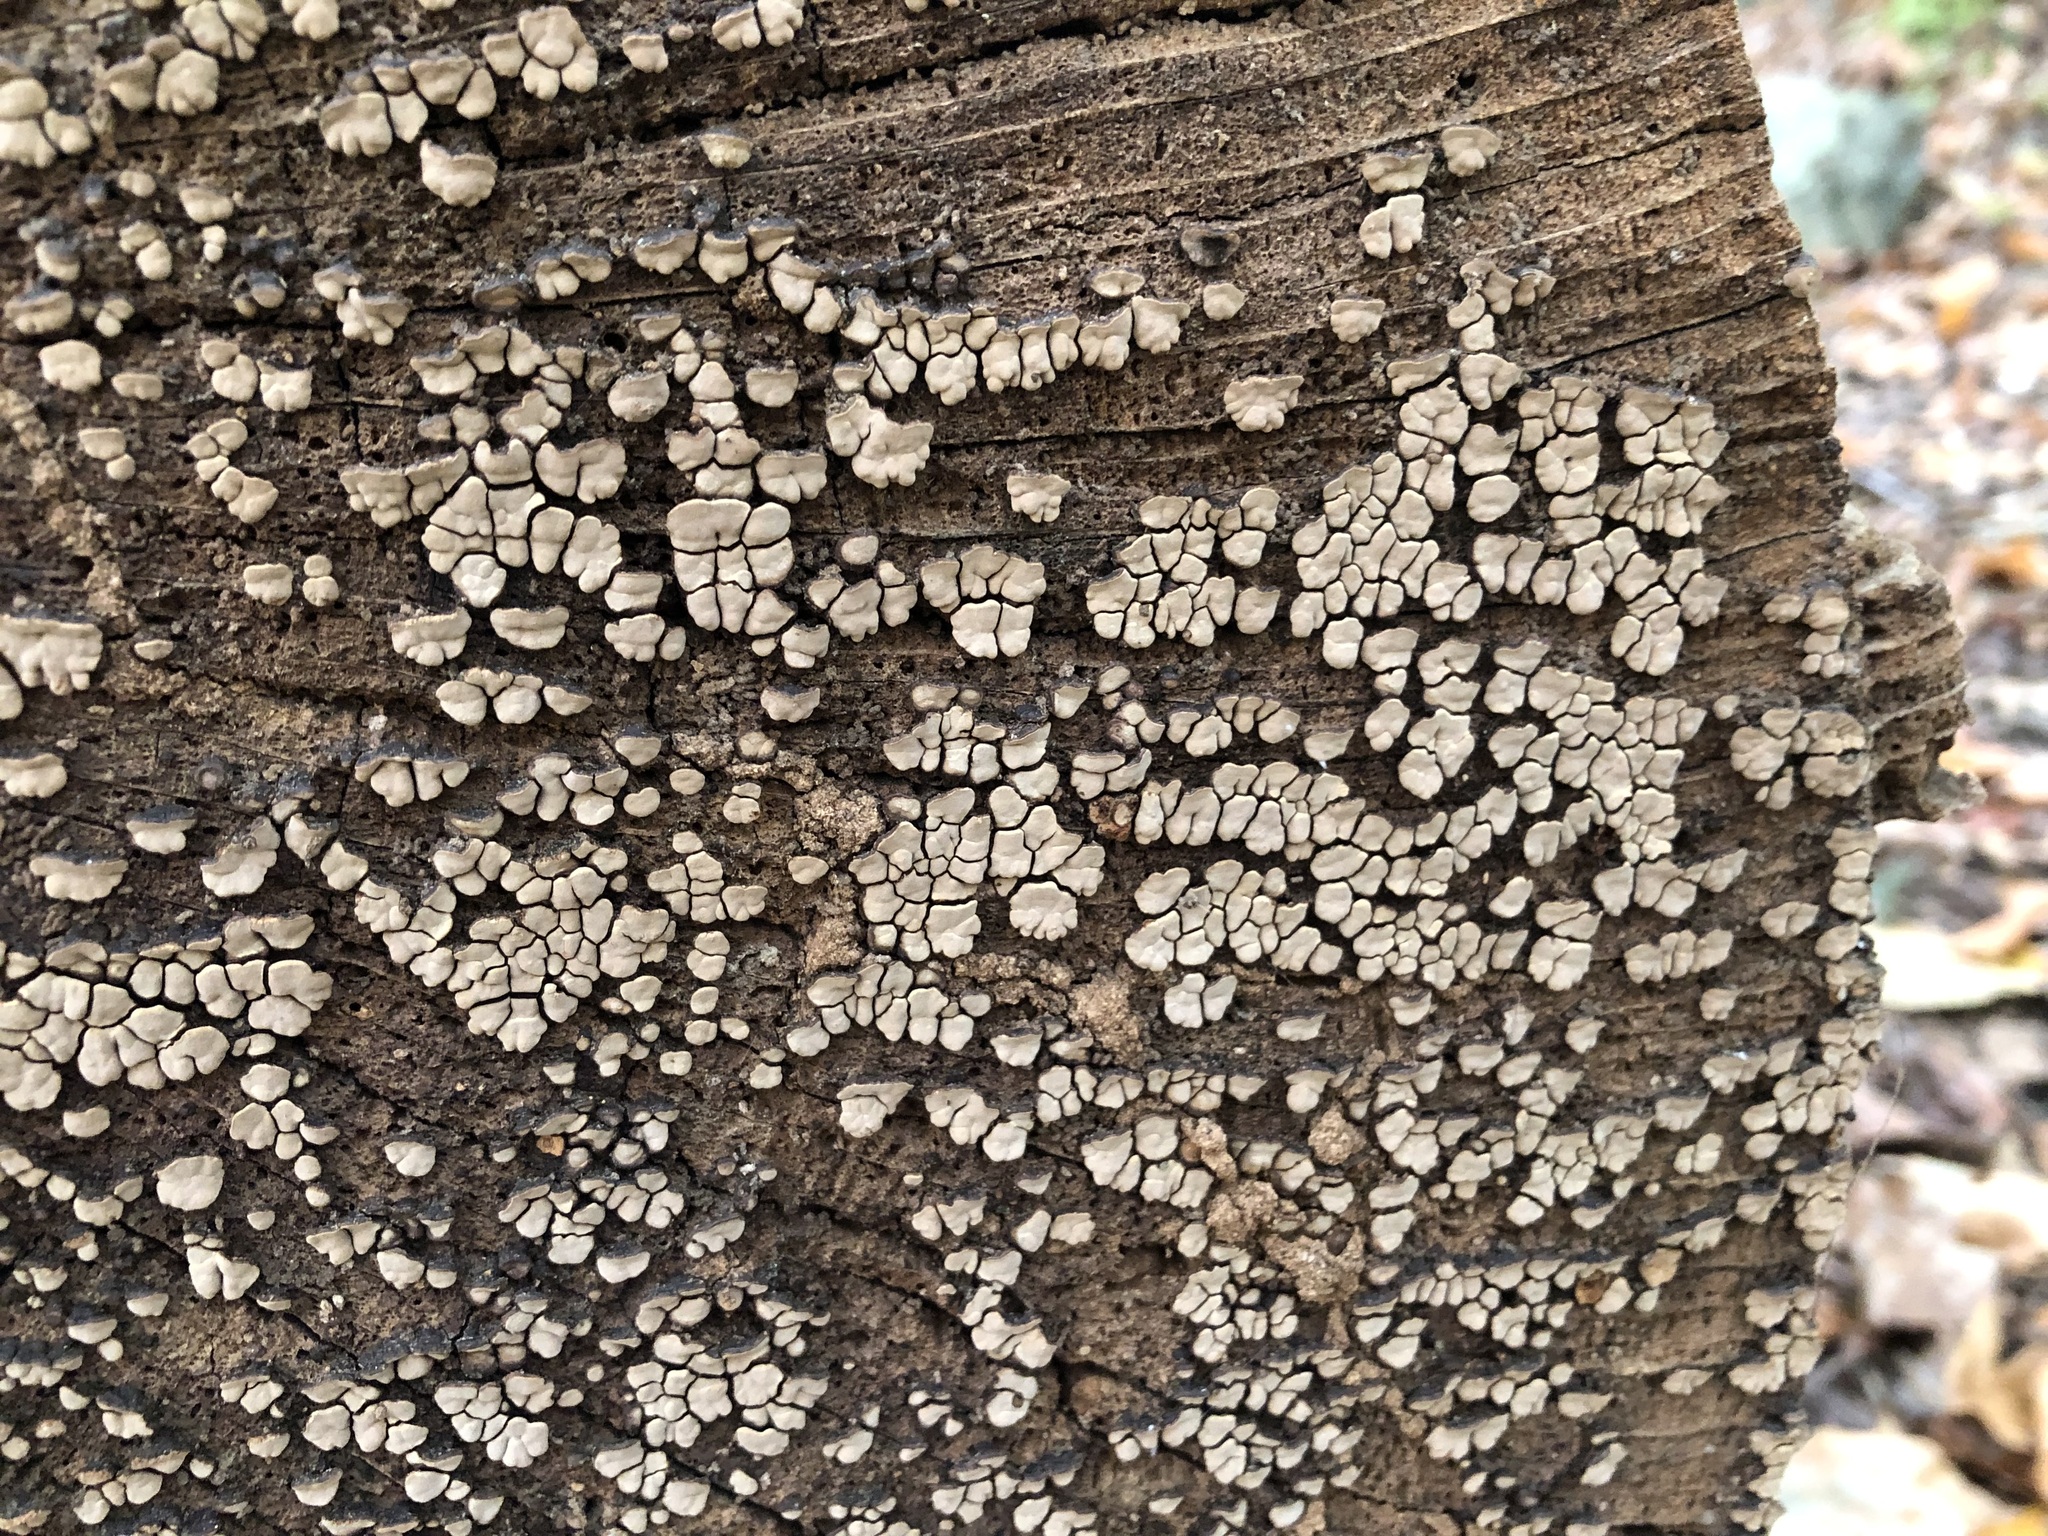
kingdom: Fungi
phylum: Basidiomycota
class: Agaricomycetes
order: Russulales
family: Stereaceae
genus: Xylobolus
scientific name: Xylobolus frustulatus
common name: Ceramic parchment
